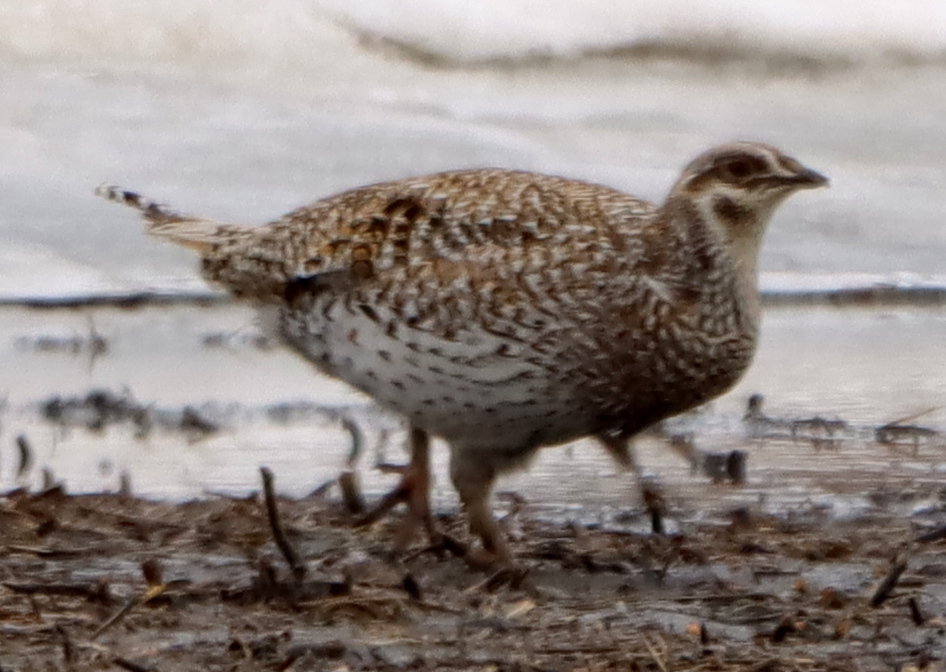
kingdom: Animalia
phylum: Chordata
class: Aves
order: Galliformes
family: Phasianidae
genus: Tympanuchus
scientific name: Tympanuchus phasianellus
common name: Sharp-tailed grouse
